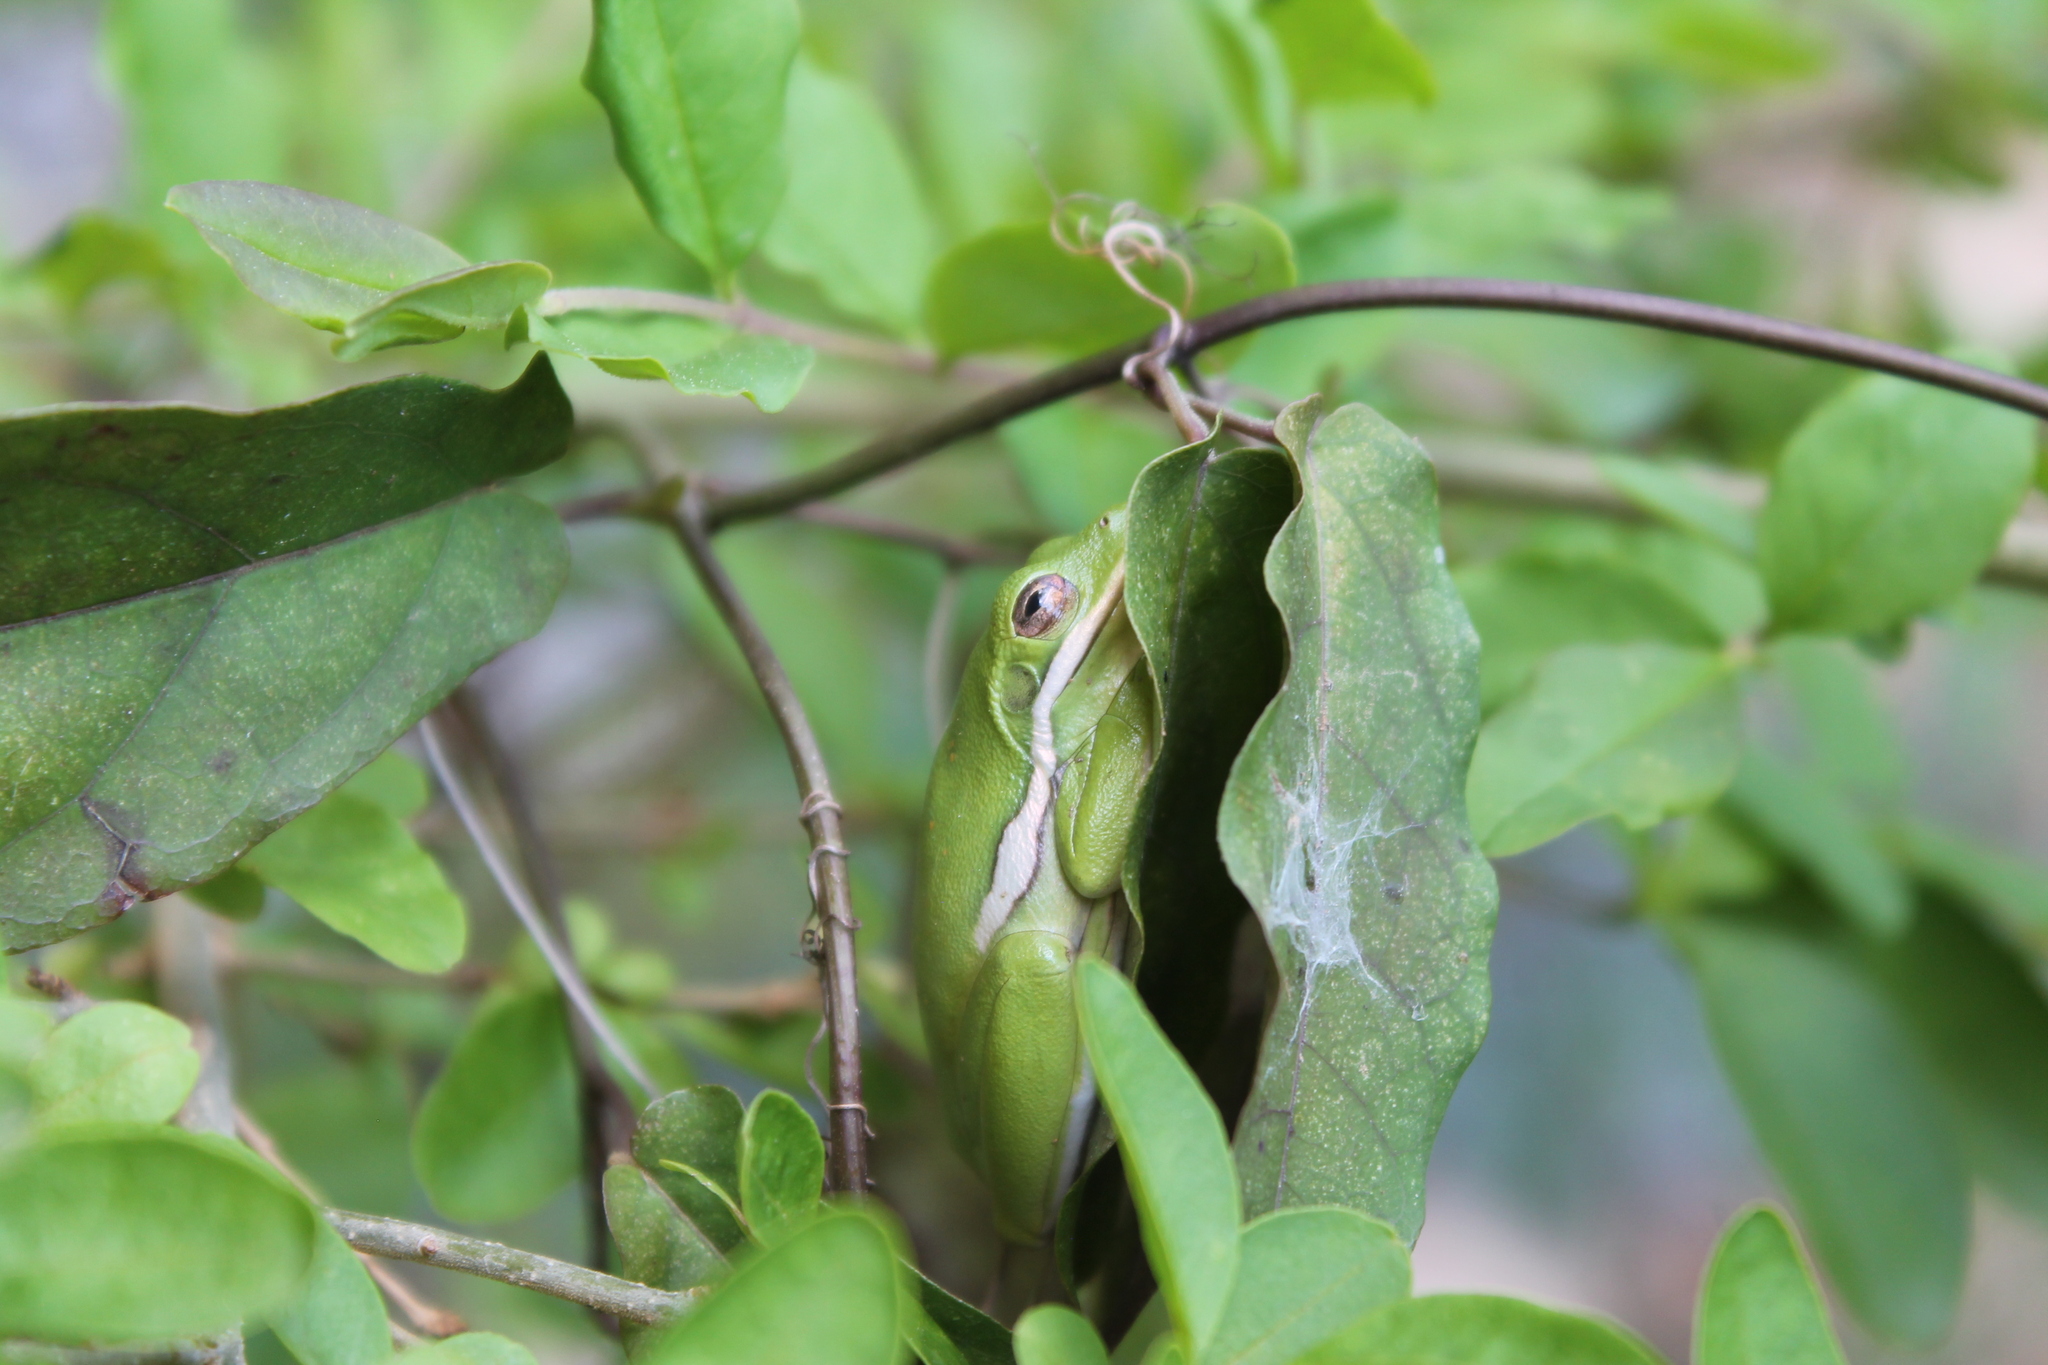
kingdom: Animalia
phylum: Chordata
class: Amphibia
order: Anura
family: Hylidae
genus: Dryophytes
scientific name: Dryophytes cinereus
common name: Green treefrog
